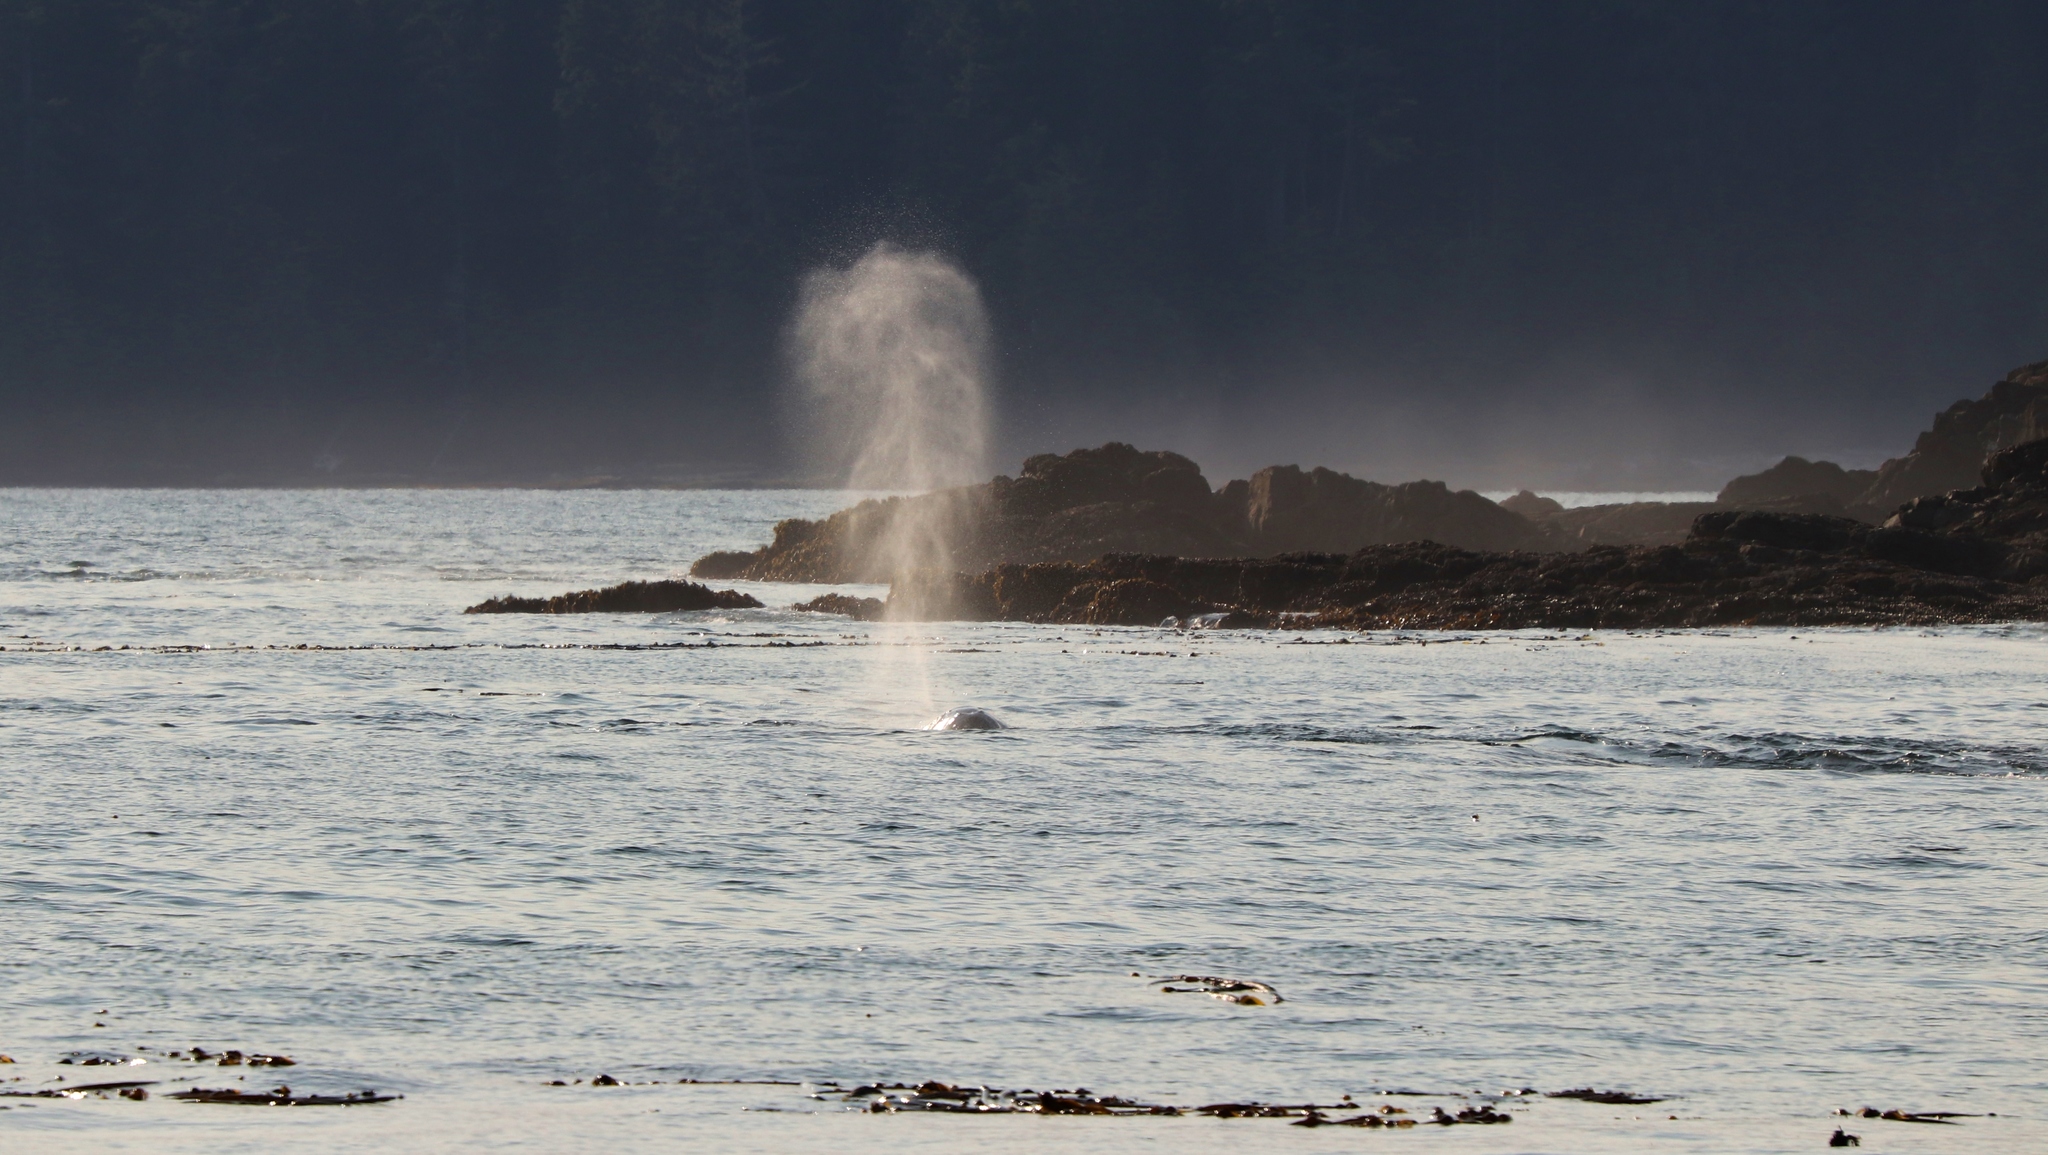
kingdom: Animalia
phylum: Chordata
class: Mammalia
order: Cetacea
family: Eschrichtiidae
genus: Eschrichtius
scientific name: Eschrichtius robustus
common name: Gray whale
